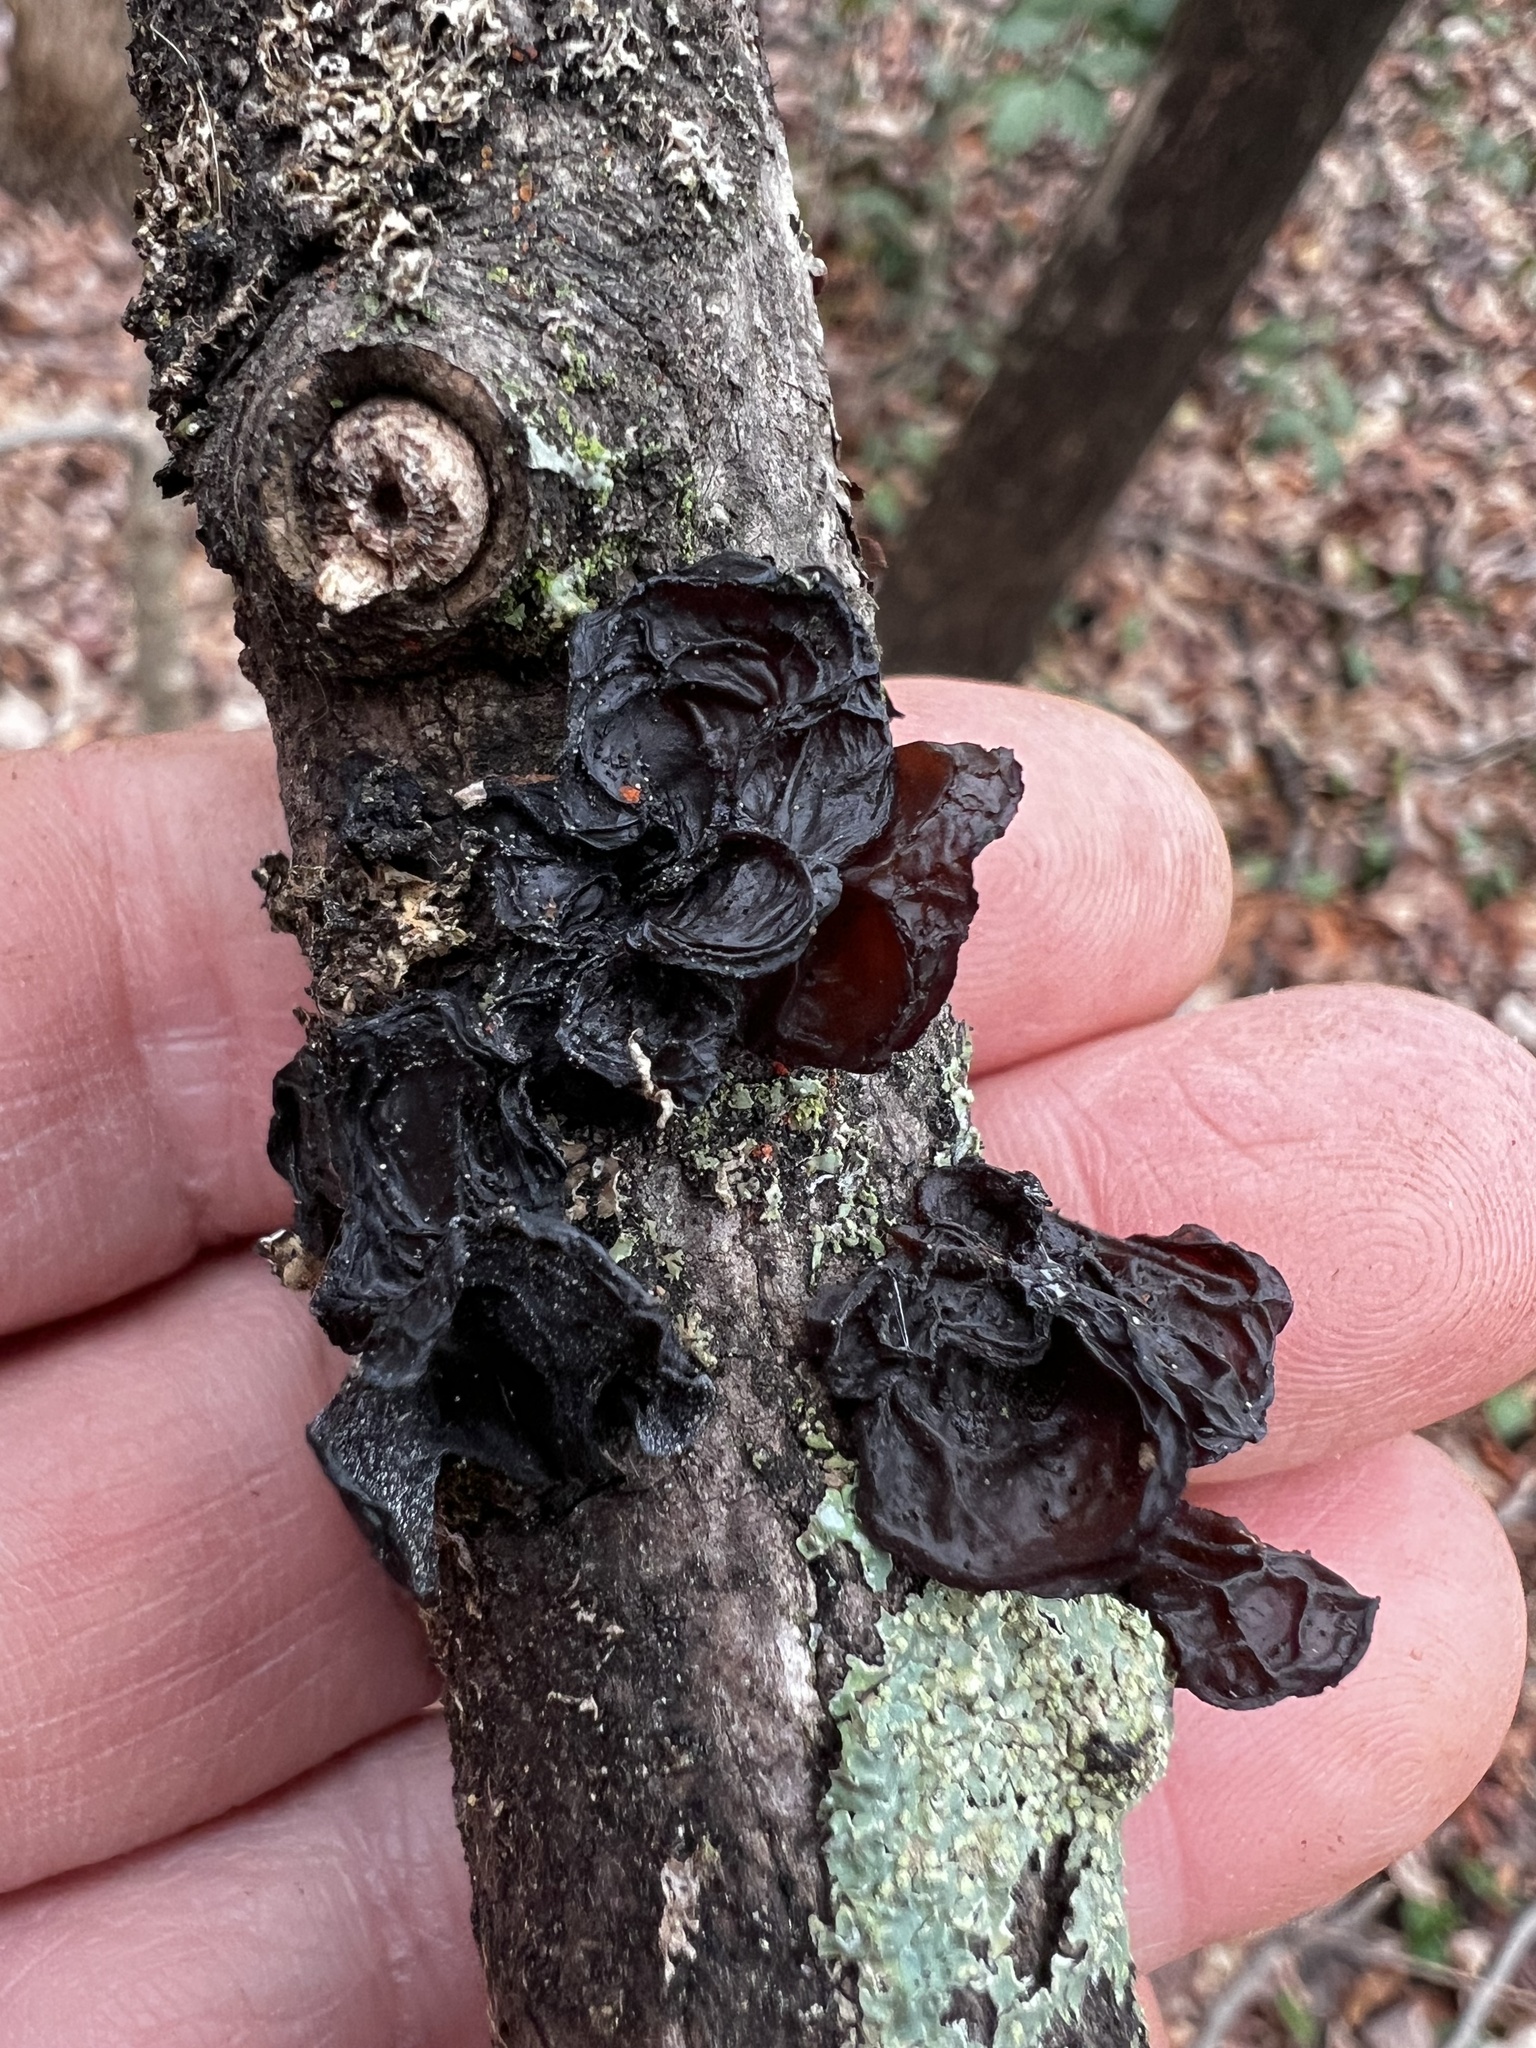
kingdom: Fungi
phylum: Basidiomycota
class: Agaricomycetes
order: Auriculariales
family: Auriculariaceae
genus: Exidia
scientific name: Exidia
